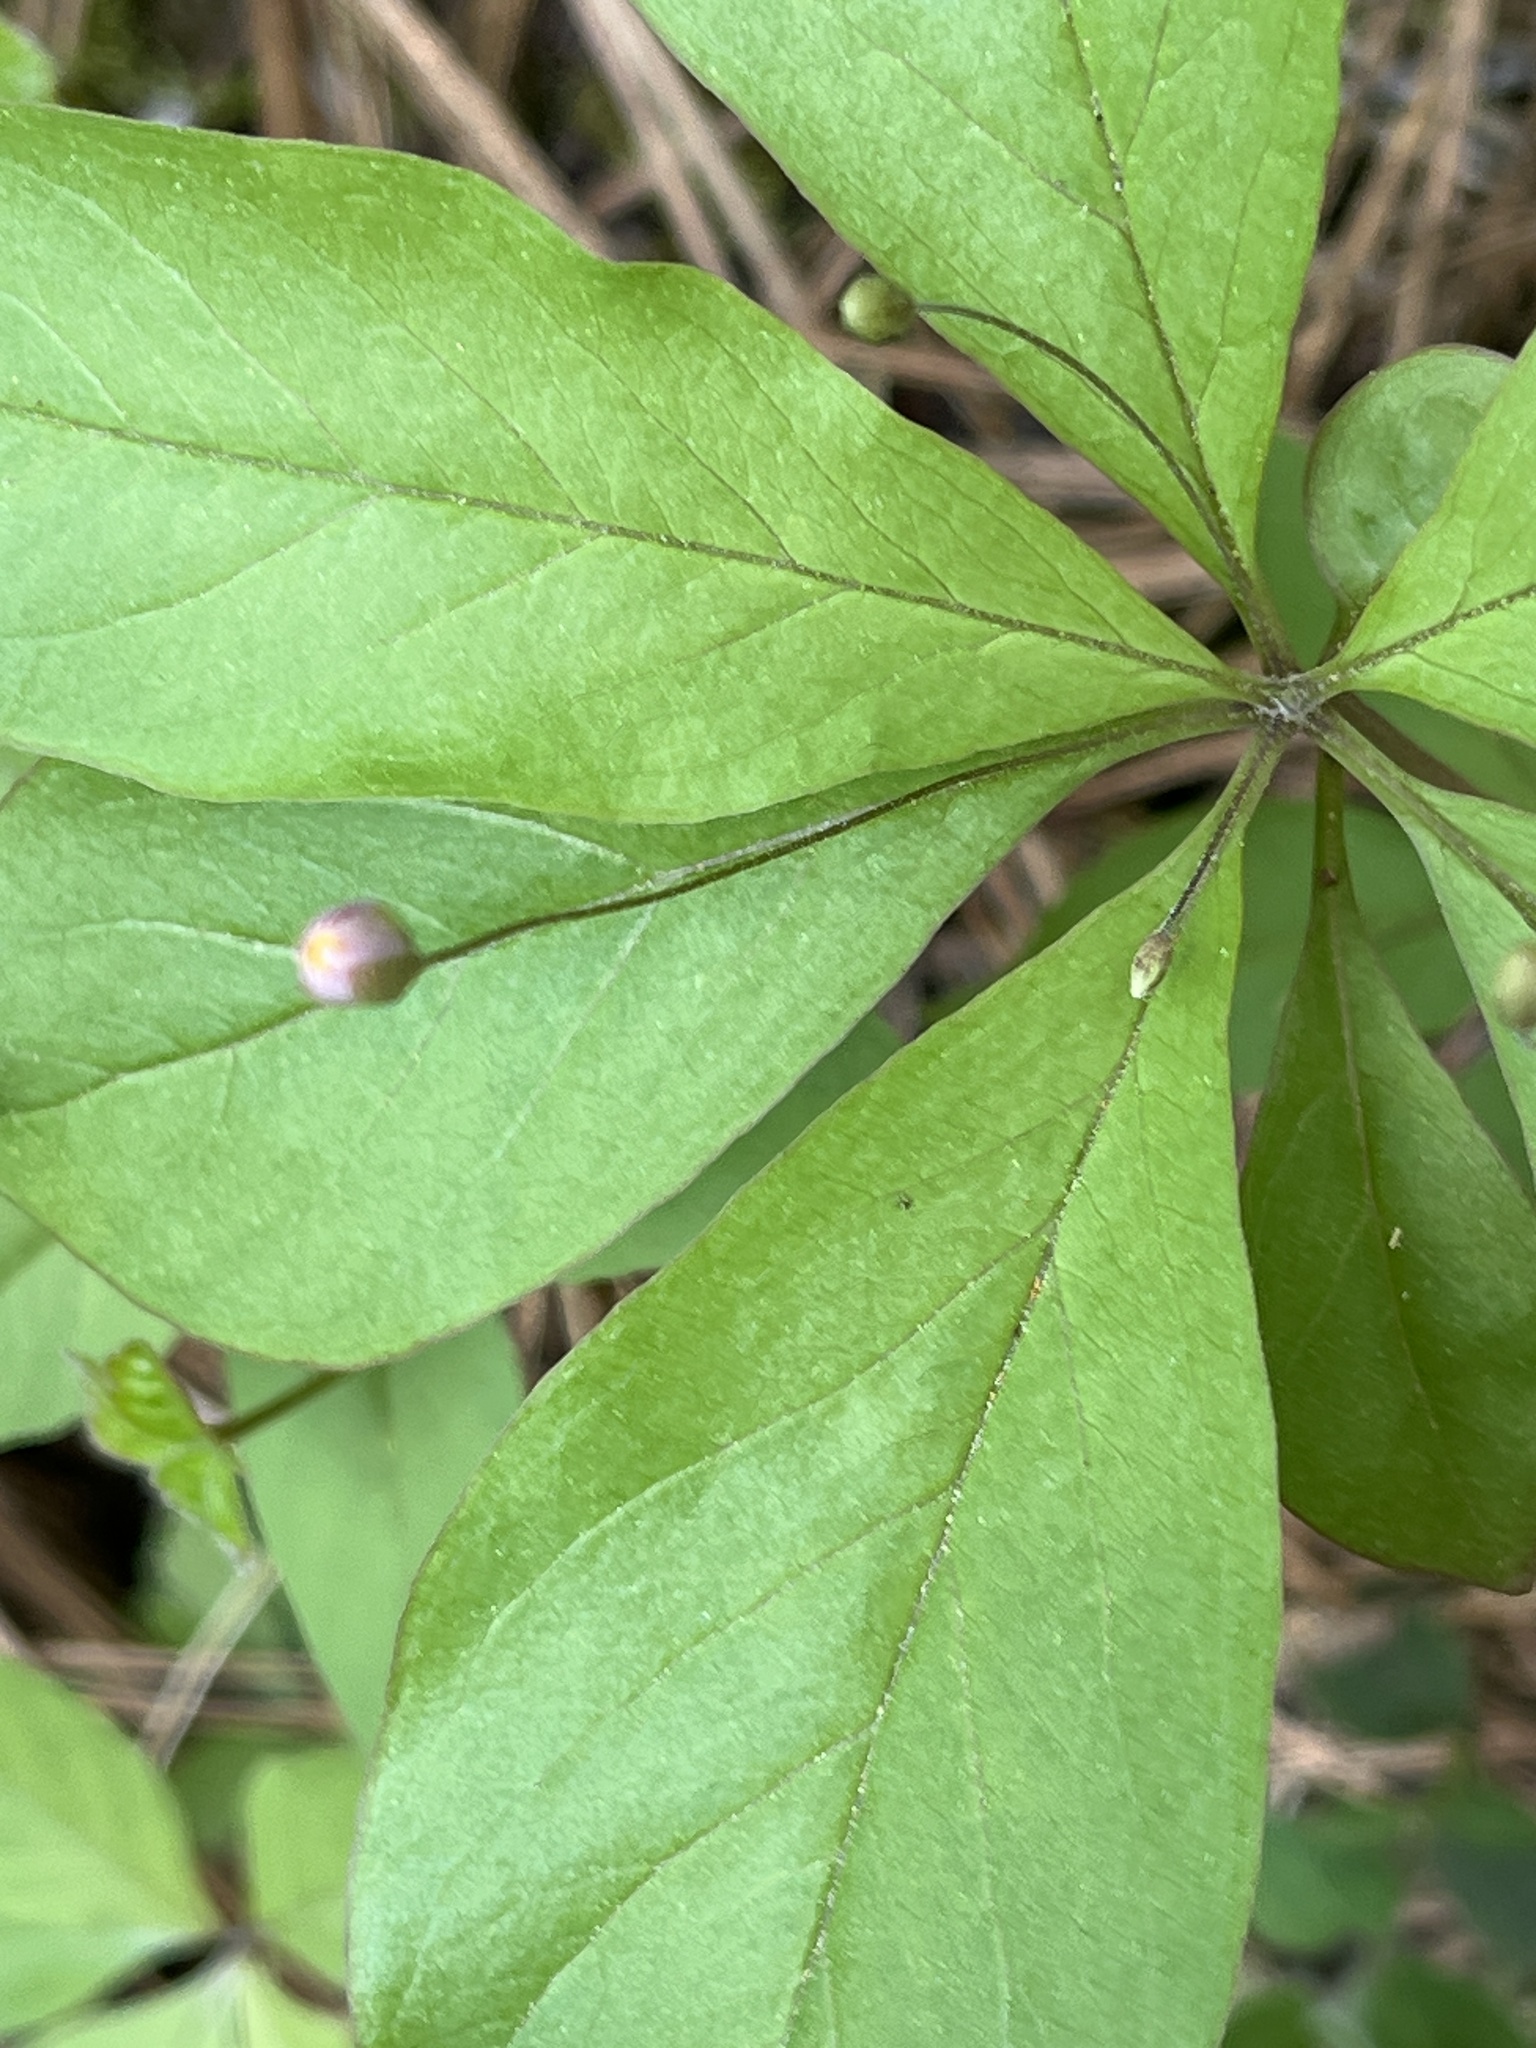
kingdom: Plantae
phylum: Tracheophyta
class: Magnoliopsida
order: Ericales
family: Primulaceae
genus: Lysimachia
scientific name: Lysimachia latifolia
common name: Pacific starflower
